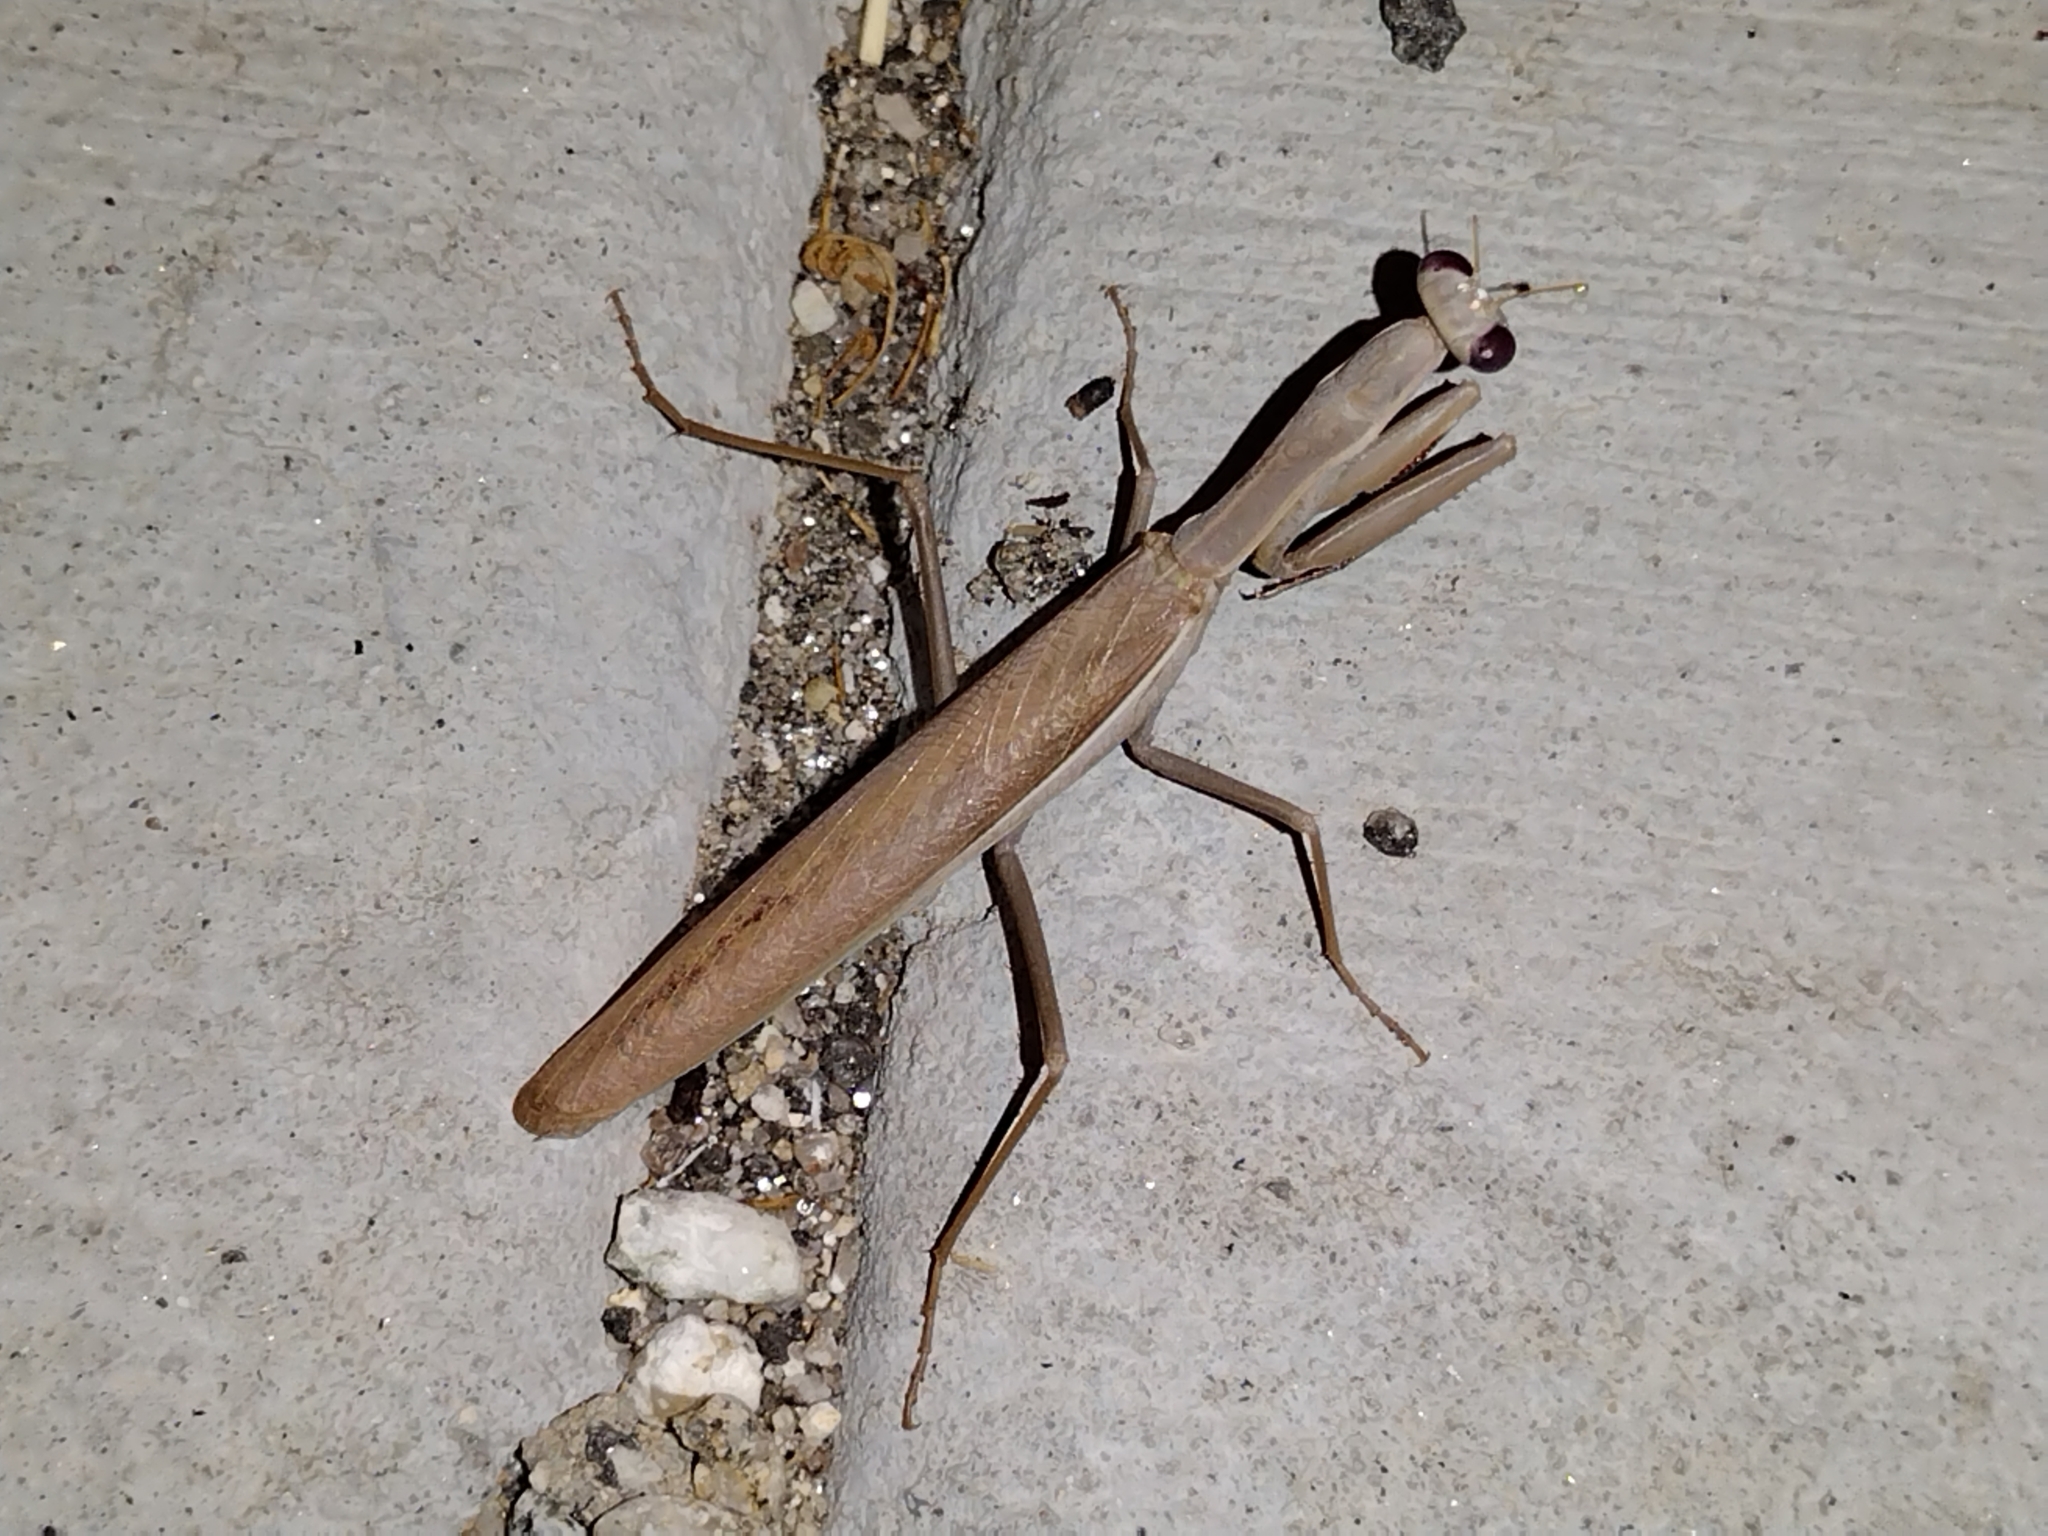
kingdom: Animalia
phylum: Arthropoda
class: Insecta
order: Mantodea
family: Eremiaphilidae
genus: Iris
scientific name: Iris oratoria
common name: Mediterranean mantis
